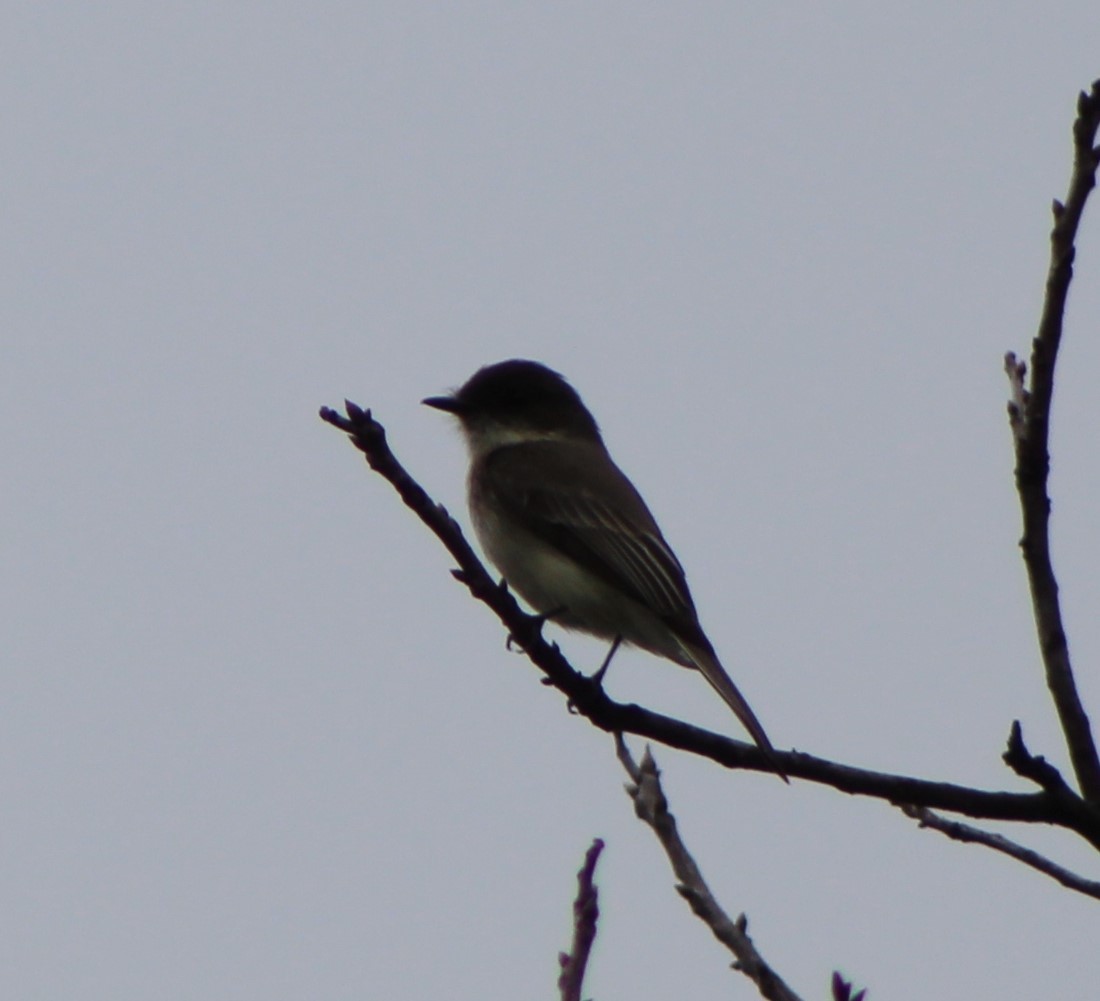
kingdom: Animalia
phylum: Chordata
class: Aves
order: Passeriformes
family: Tyrannidae
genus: Sayornis
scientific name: Sayornis phoebe
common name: Eastern phoebe
